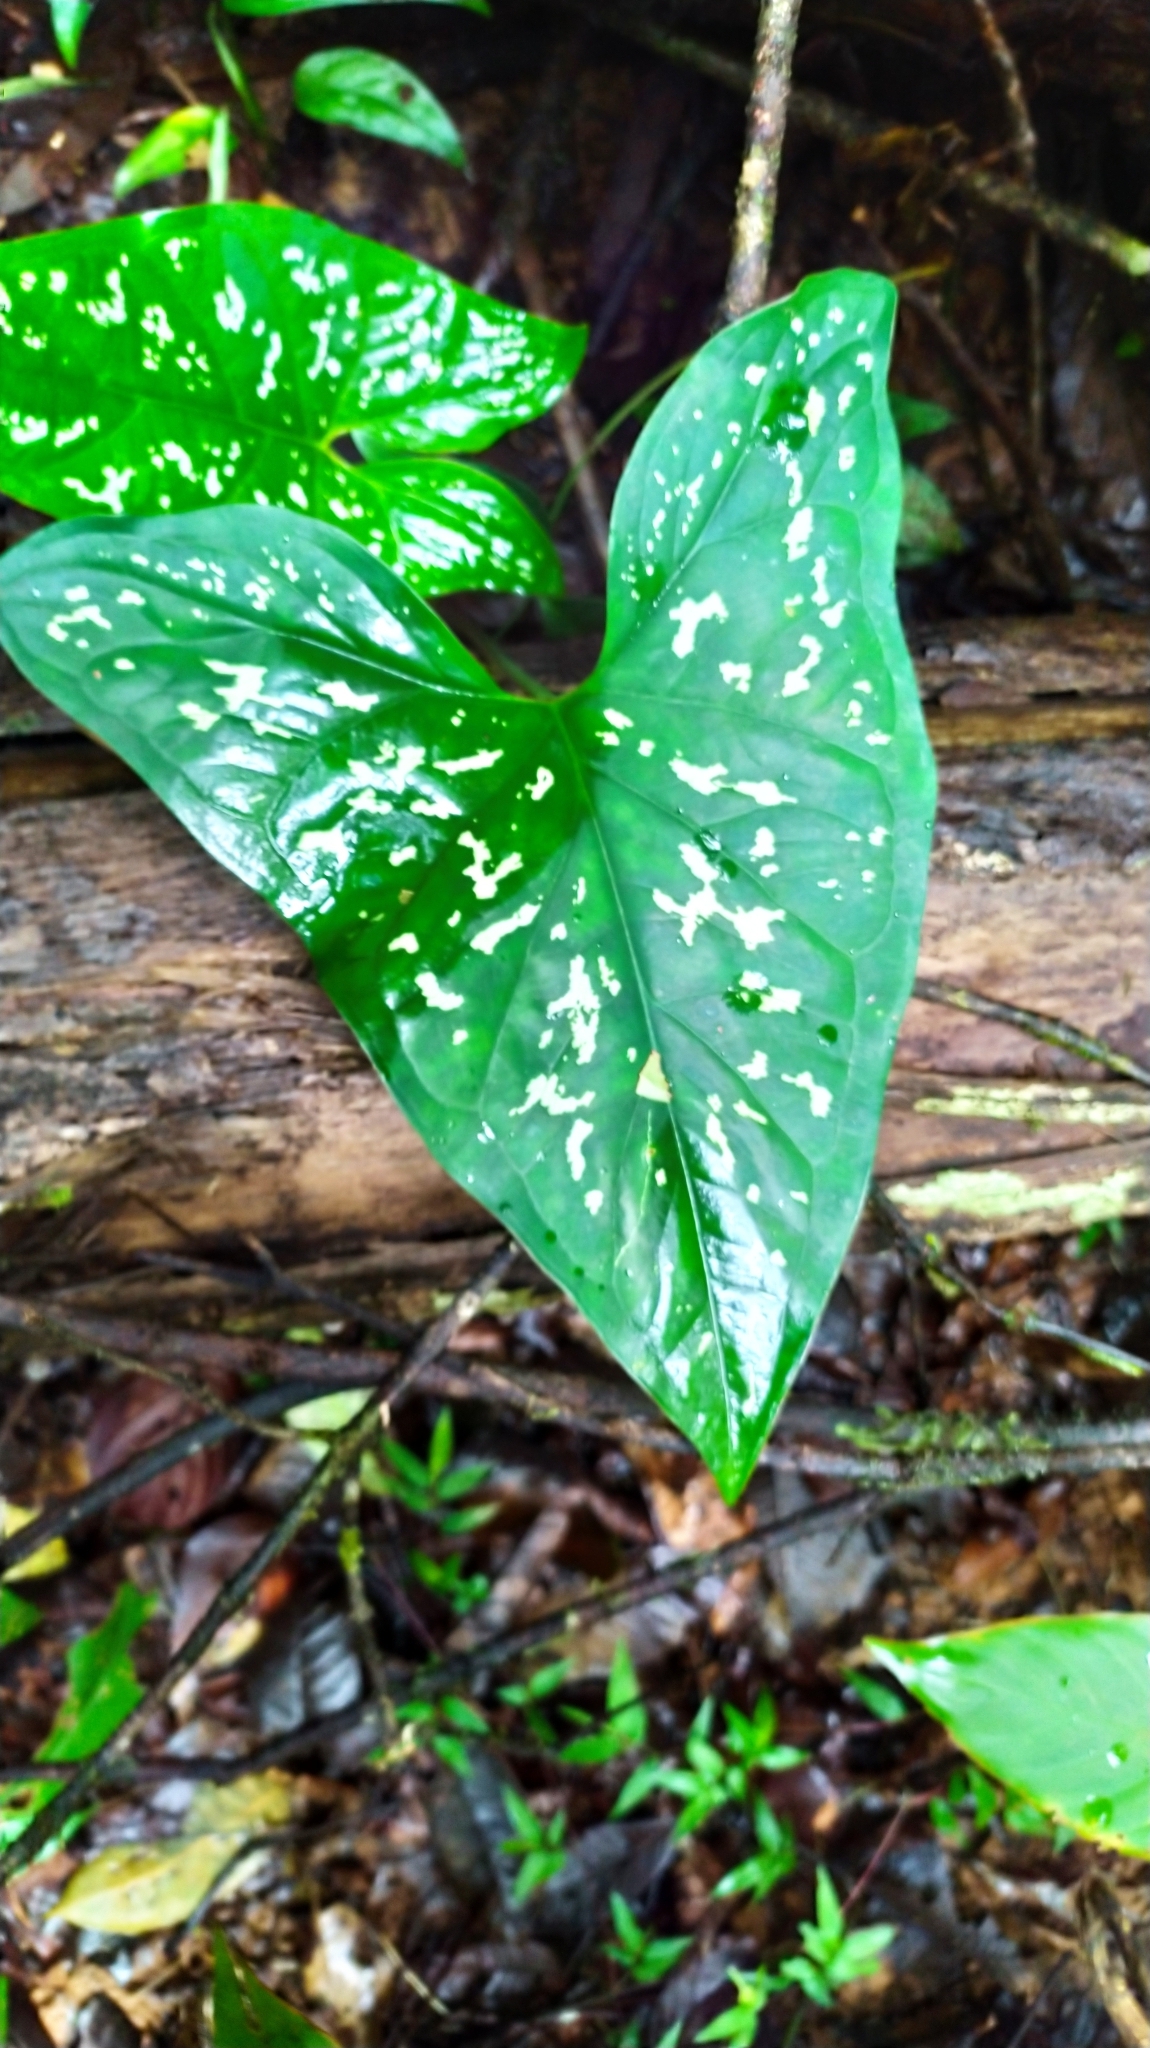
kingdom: Plantae
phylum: Tracheophyta
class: Liliopsida
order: Alismatales
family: Araceae
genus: Xanthosoma
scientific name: Xanthosoma conspurcatum
